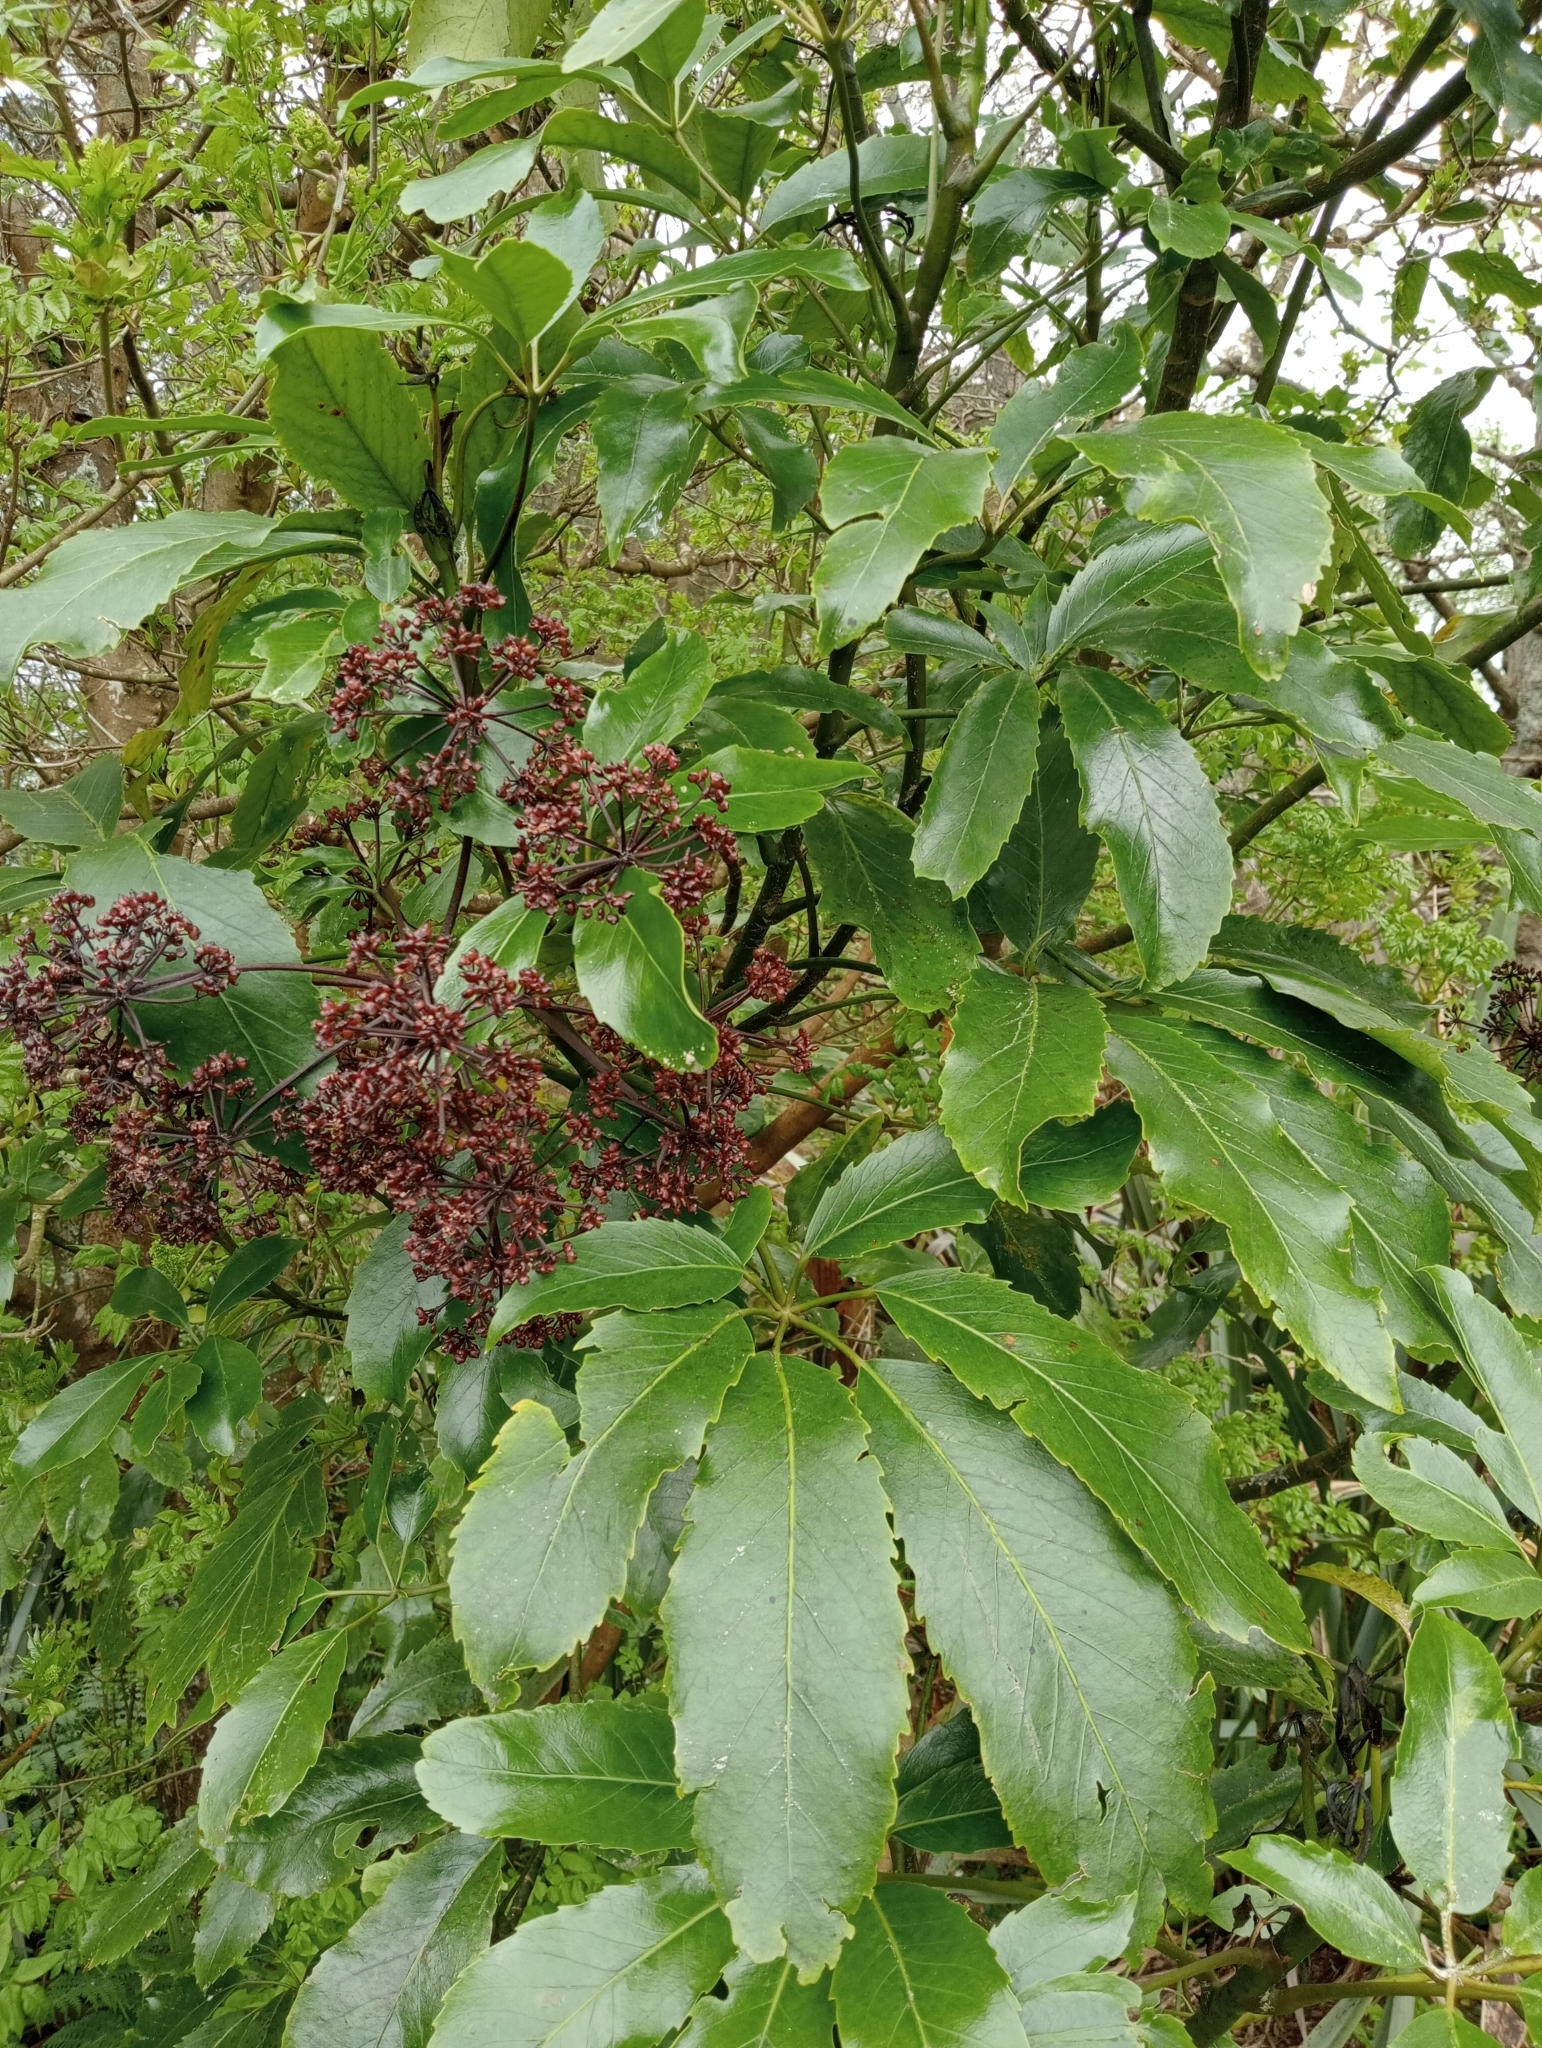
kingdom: Plantae
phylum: Tracheophyta
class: Magnoliopsida
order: Apiales
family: Araliaceae
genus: Neopanax
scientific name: Neopanax arboreus
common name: Five-fingers
